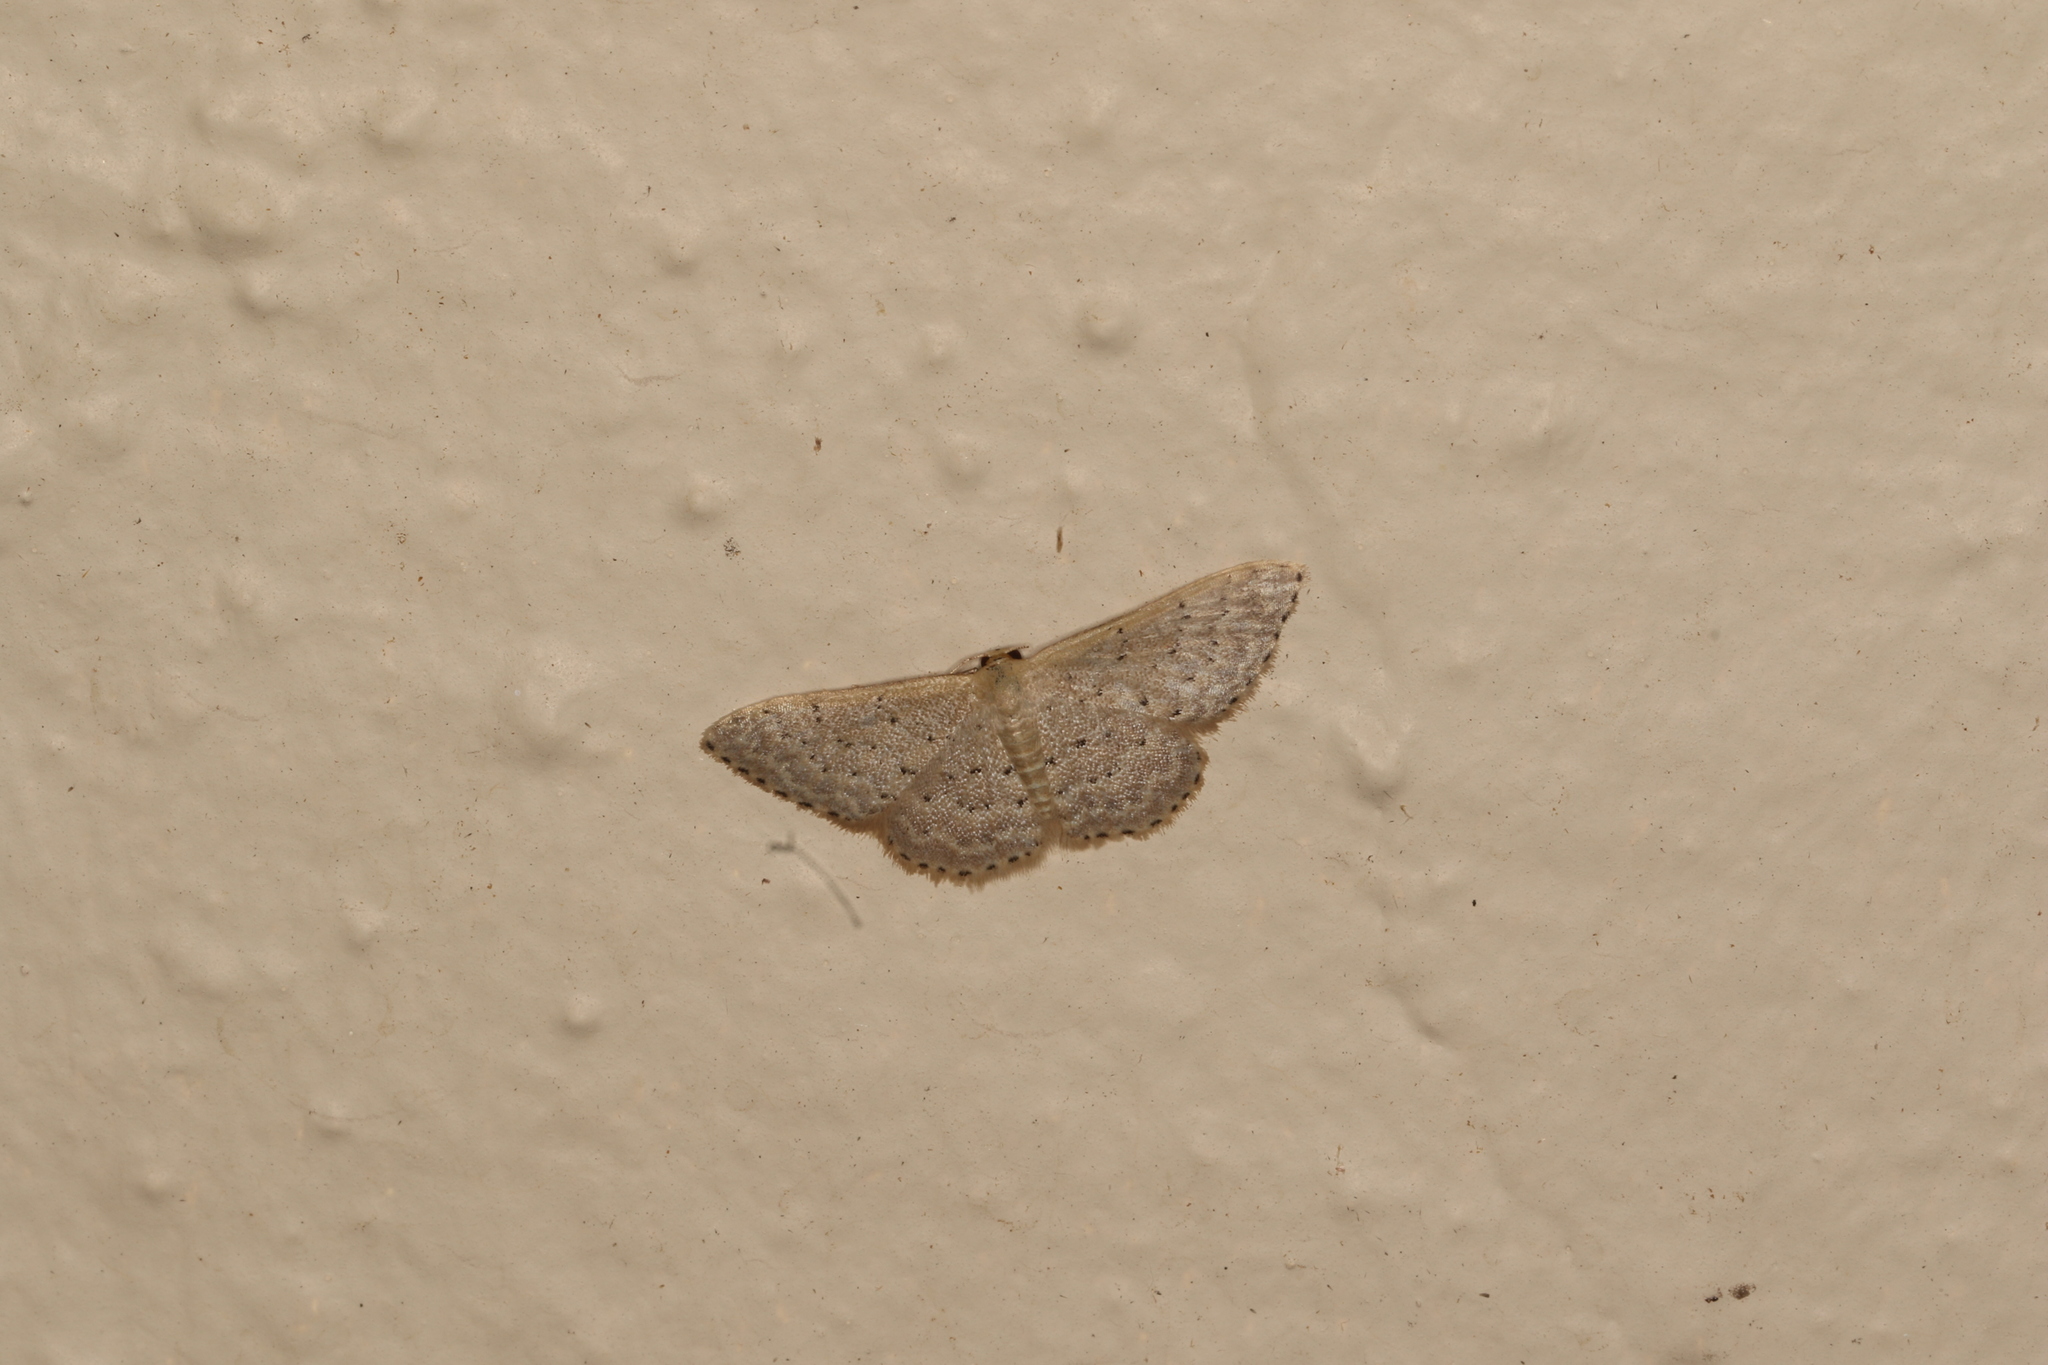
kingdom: Animalia
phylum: Arthropoda
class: Insecta
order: Lepidoptera
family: Geometridae
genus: Idaea
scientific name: Idaea philocosma
